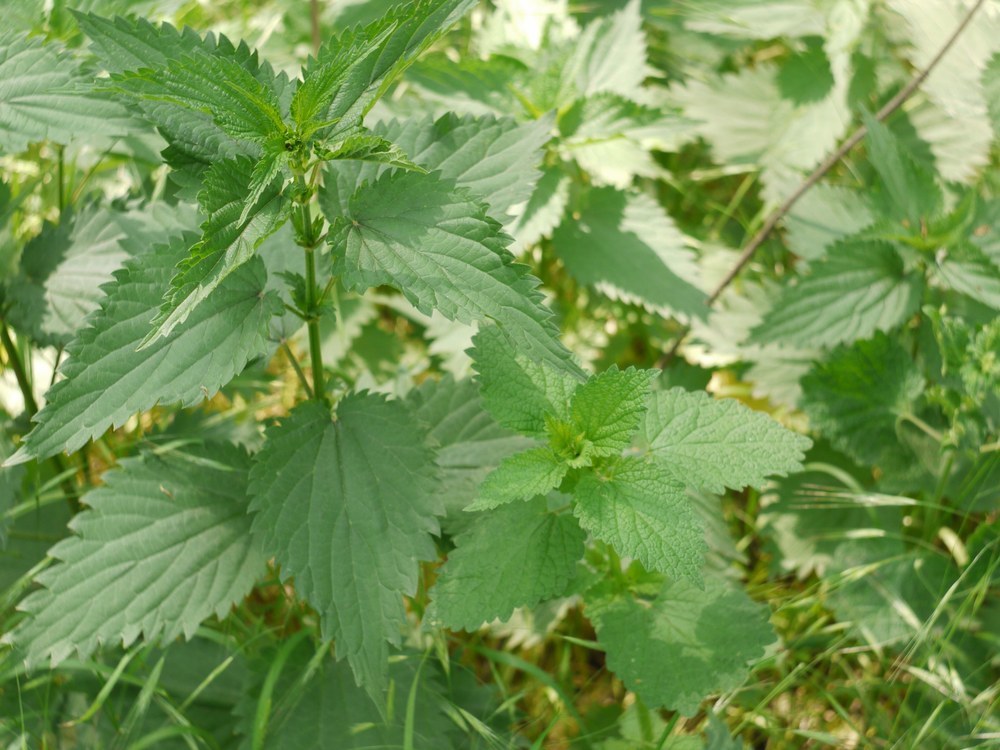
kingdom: Plantae
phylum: Tracheophyta
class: Magnoliopsida
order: Rosales
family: Urticaceae
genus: Urtica
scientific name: Urtica dioica
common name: Common nettle
